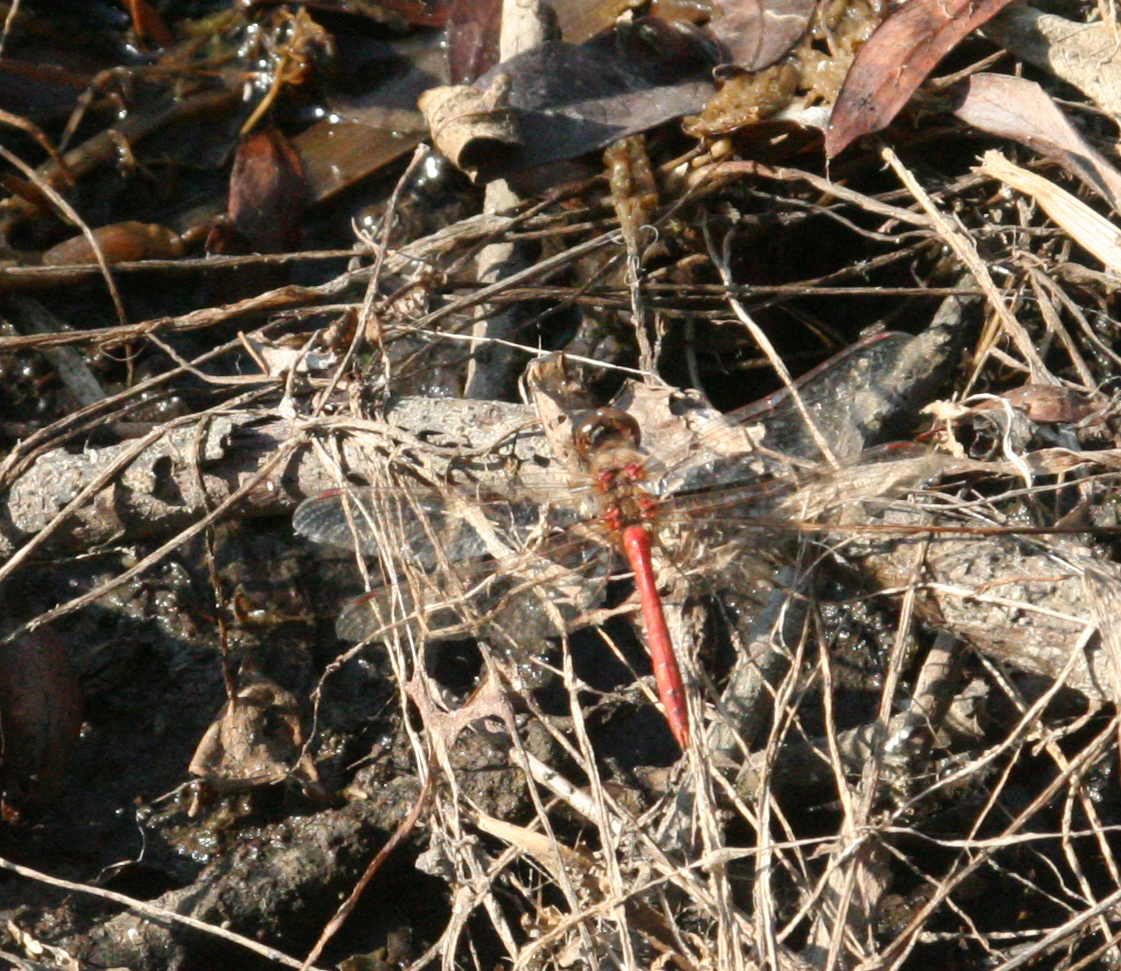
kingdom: Animalia
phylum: Arthropoda
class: Insecta
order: Odonata
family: Libellulidae
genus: Sympetrum
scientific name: Sympetrum vulgatum
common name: Vagrant darter
